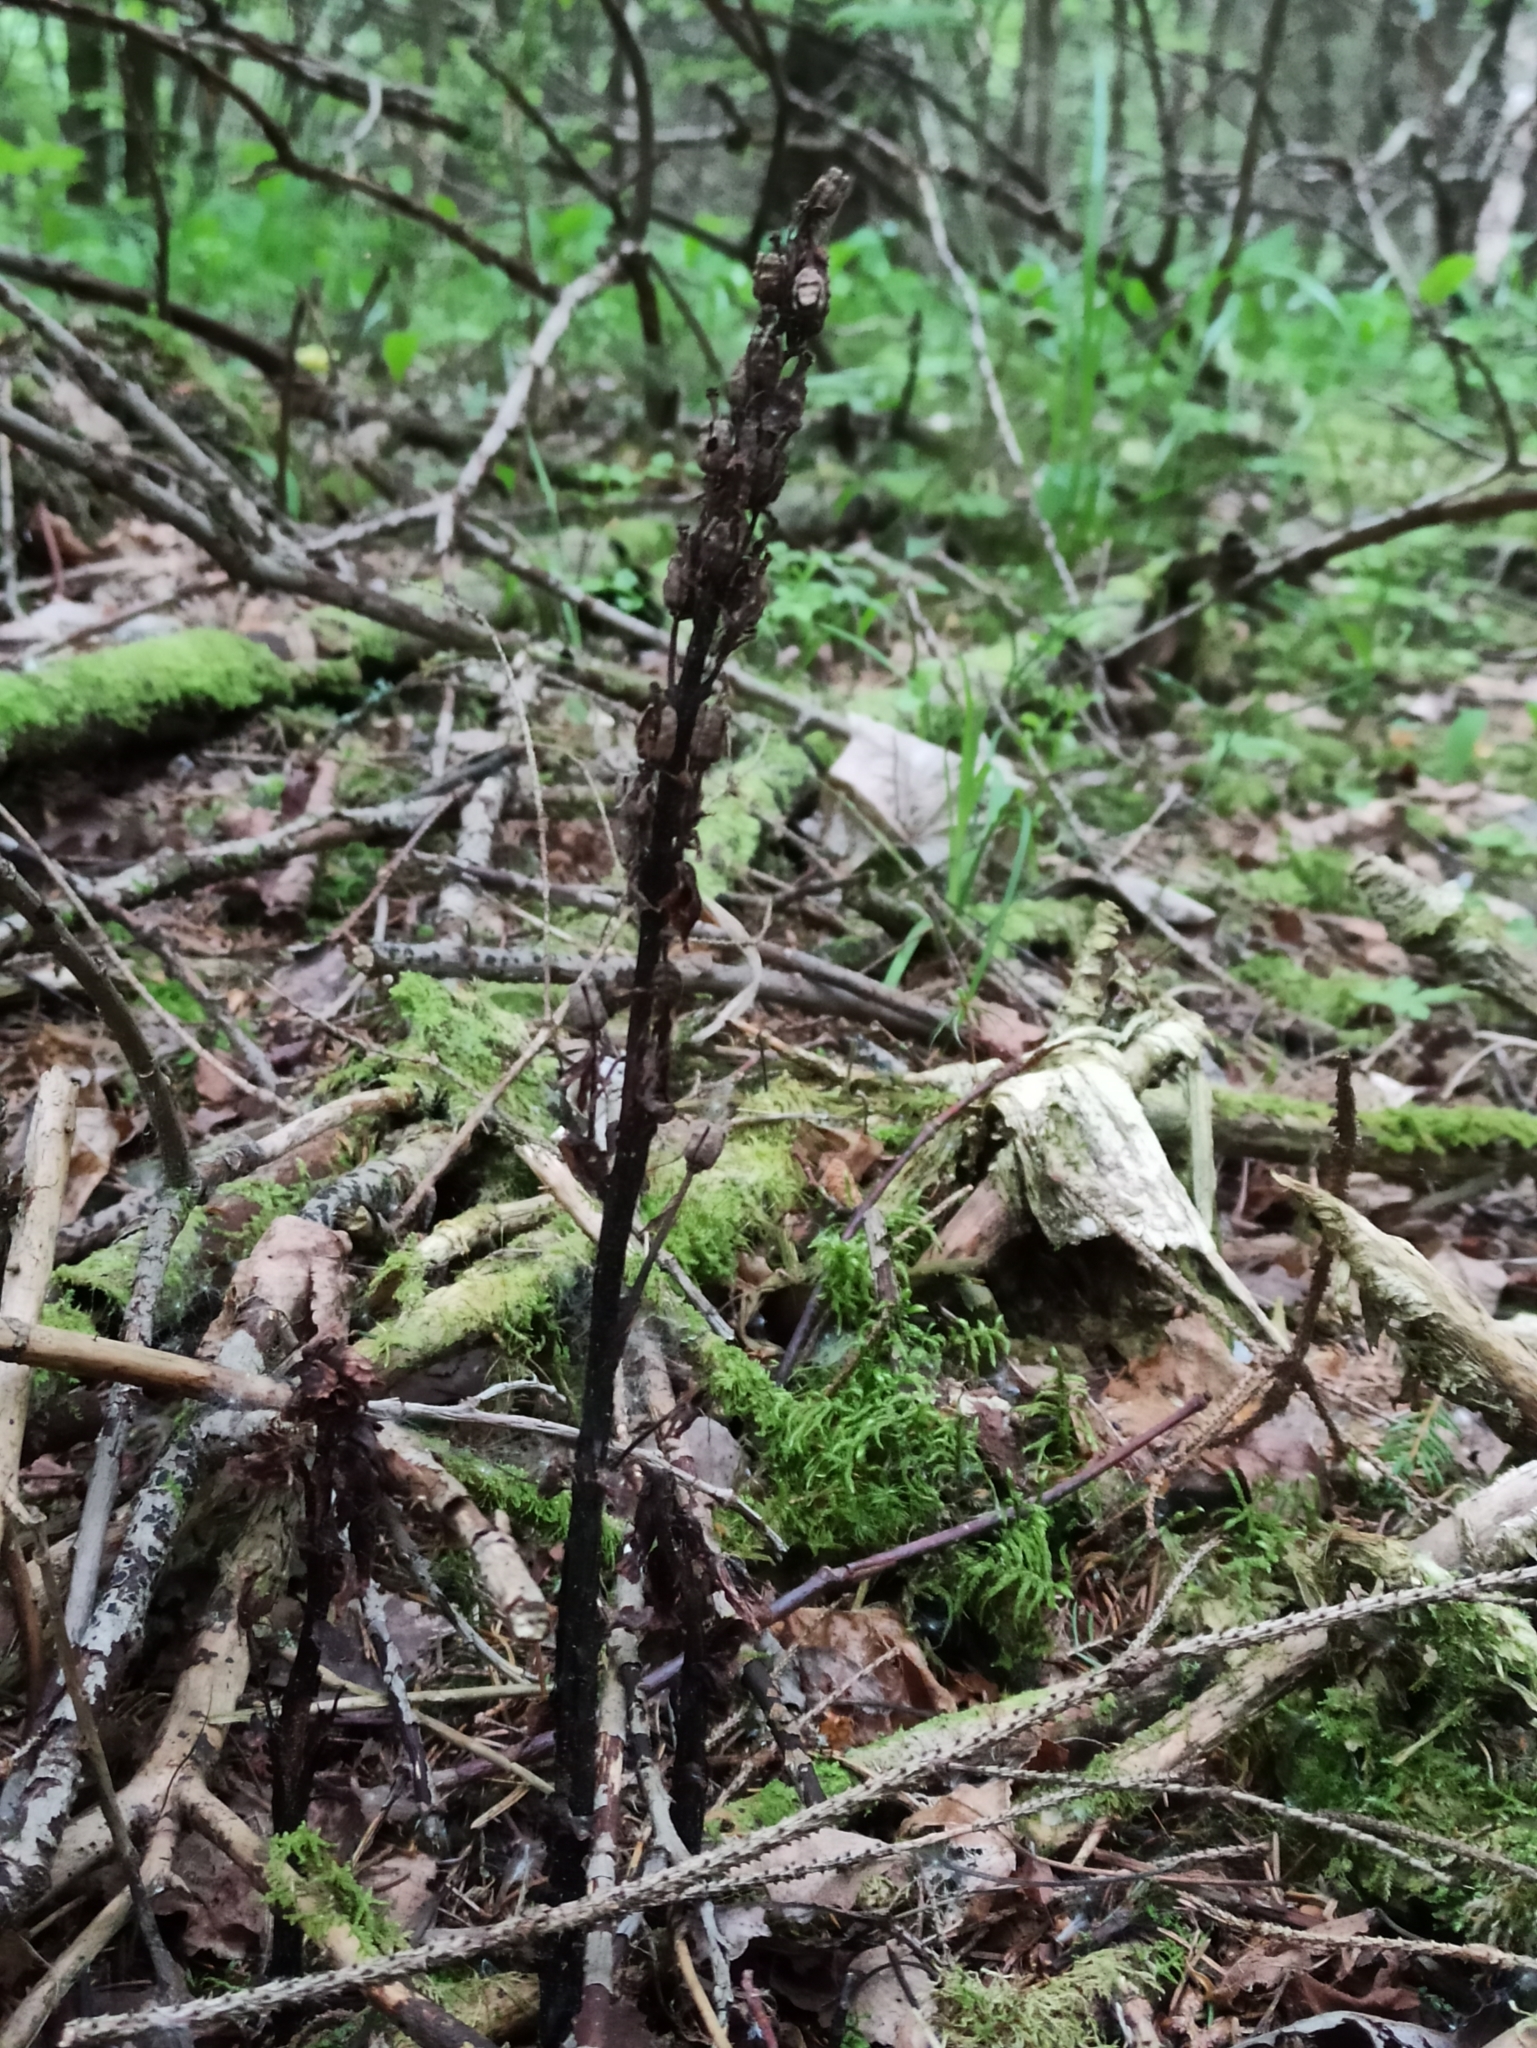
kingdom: Plantae
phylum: Tracheophyta
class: Magnoliopsida
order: Ericales
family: Ericaceae
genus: Hypopitys
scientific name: Hypopitys monotropa
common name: Yellow bird's-nest
